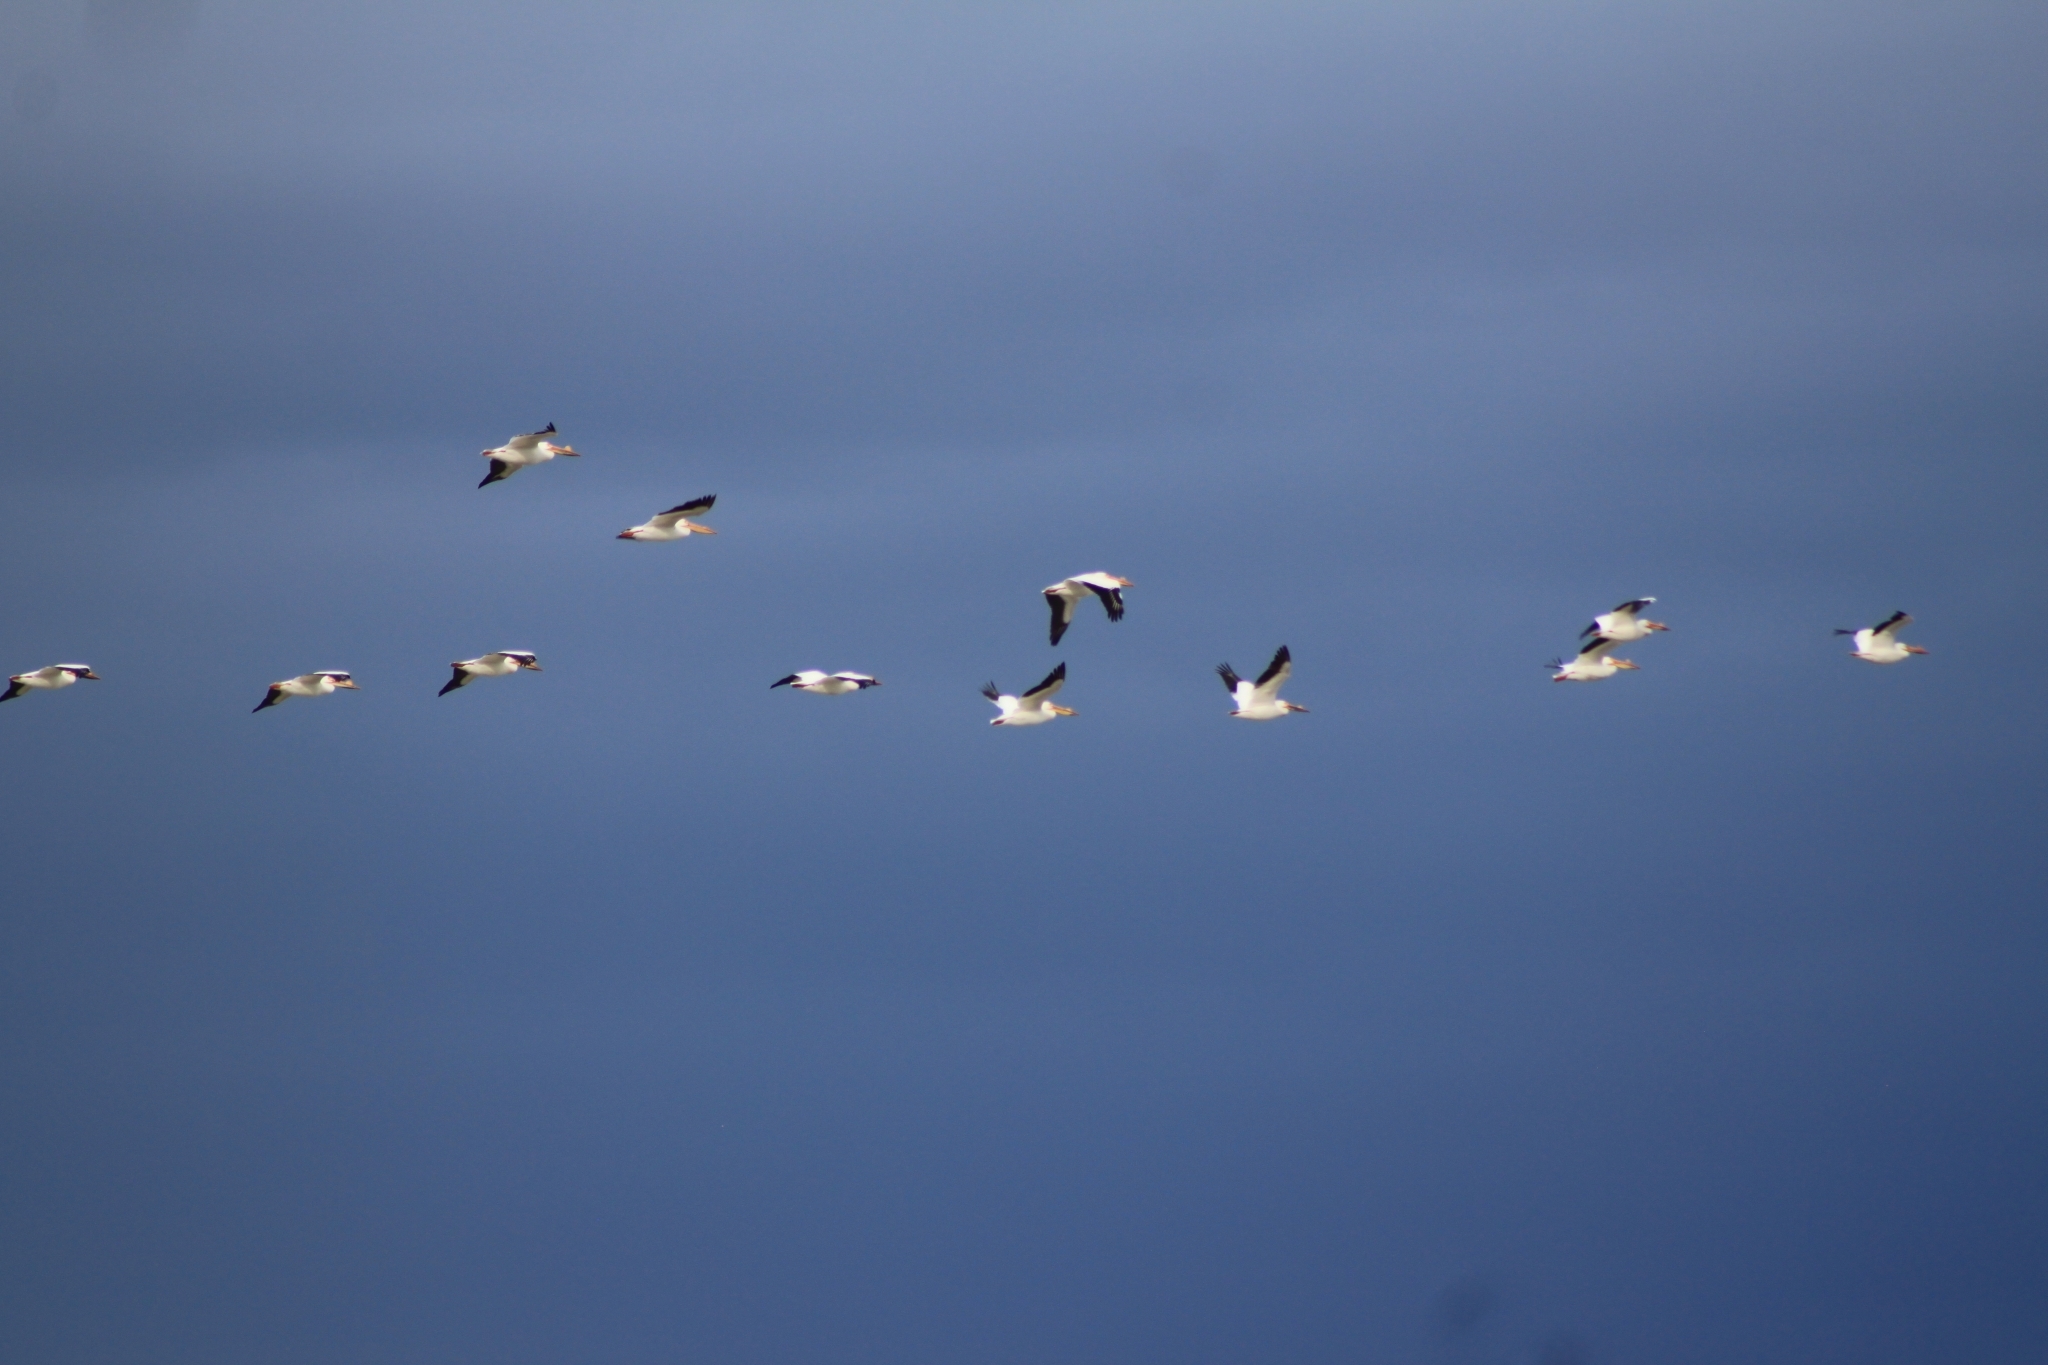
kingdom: Animalia
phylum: Chordata
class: Aves
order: Pelecaniformes
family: Pelecanidae
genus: Pelecanus
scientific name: Pelecanus erythrorhynchos
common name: American white pelican
